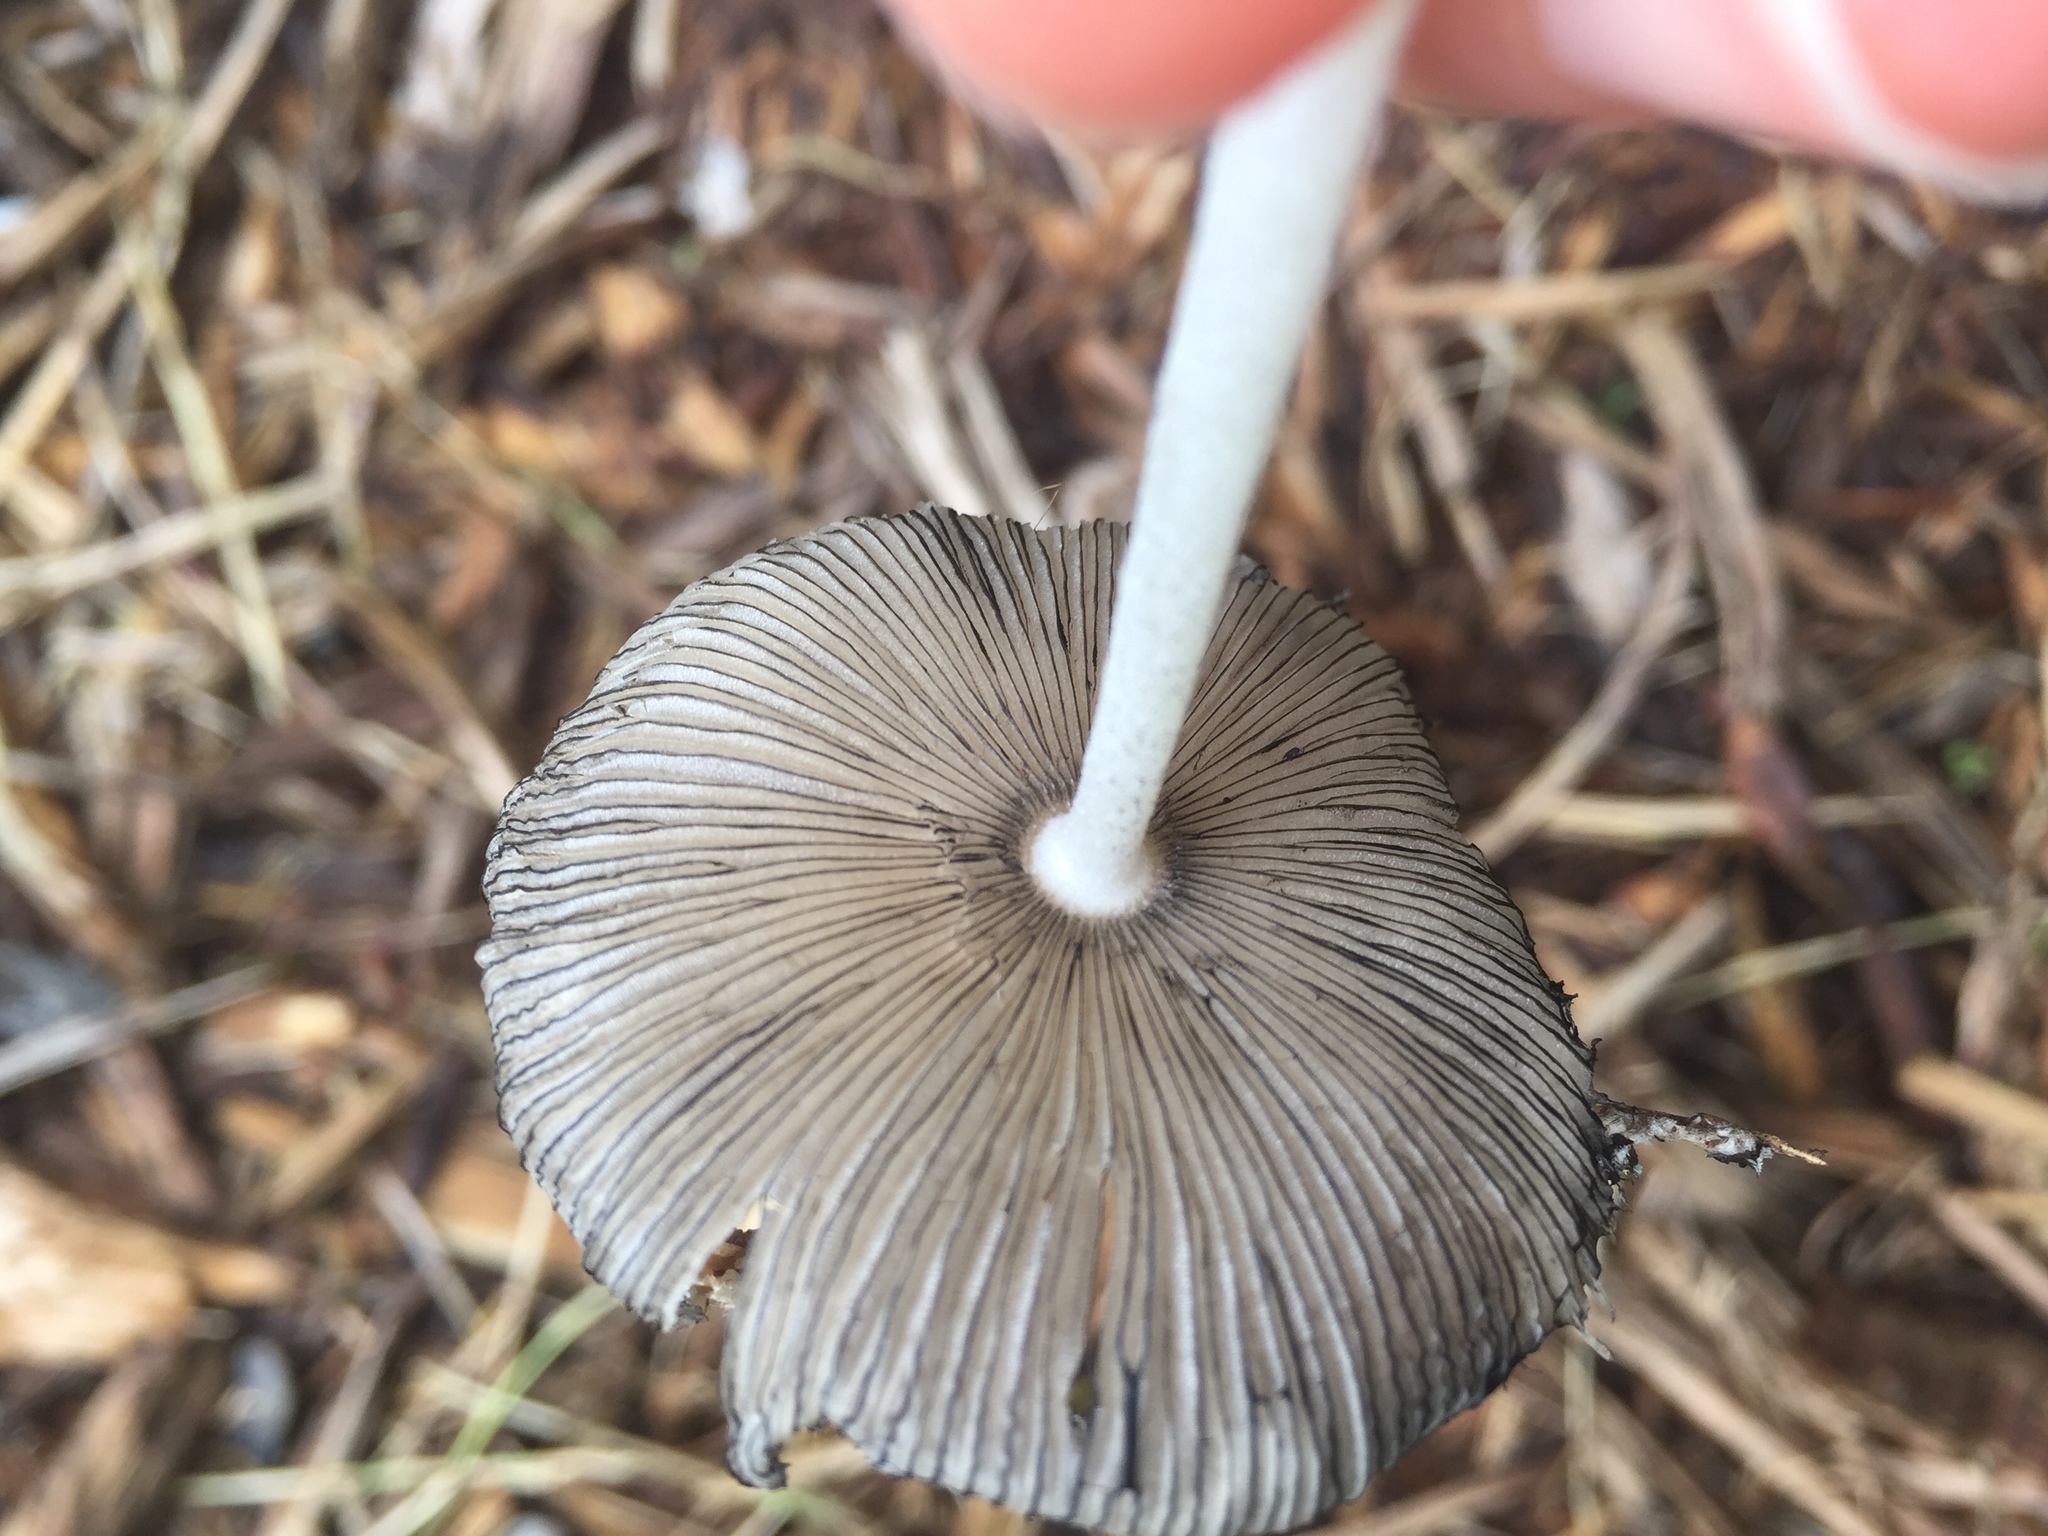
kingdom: Fungi
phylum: Basidiomycota
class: Agaricomycetes
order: Agaricales
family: Psathyrellaceae
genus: Coprinopsis
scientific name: Coprinopsis lagopus
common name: Hare'sfoot inkcap
